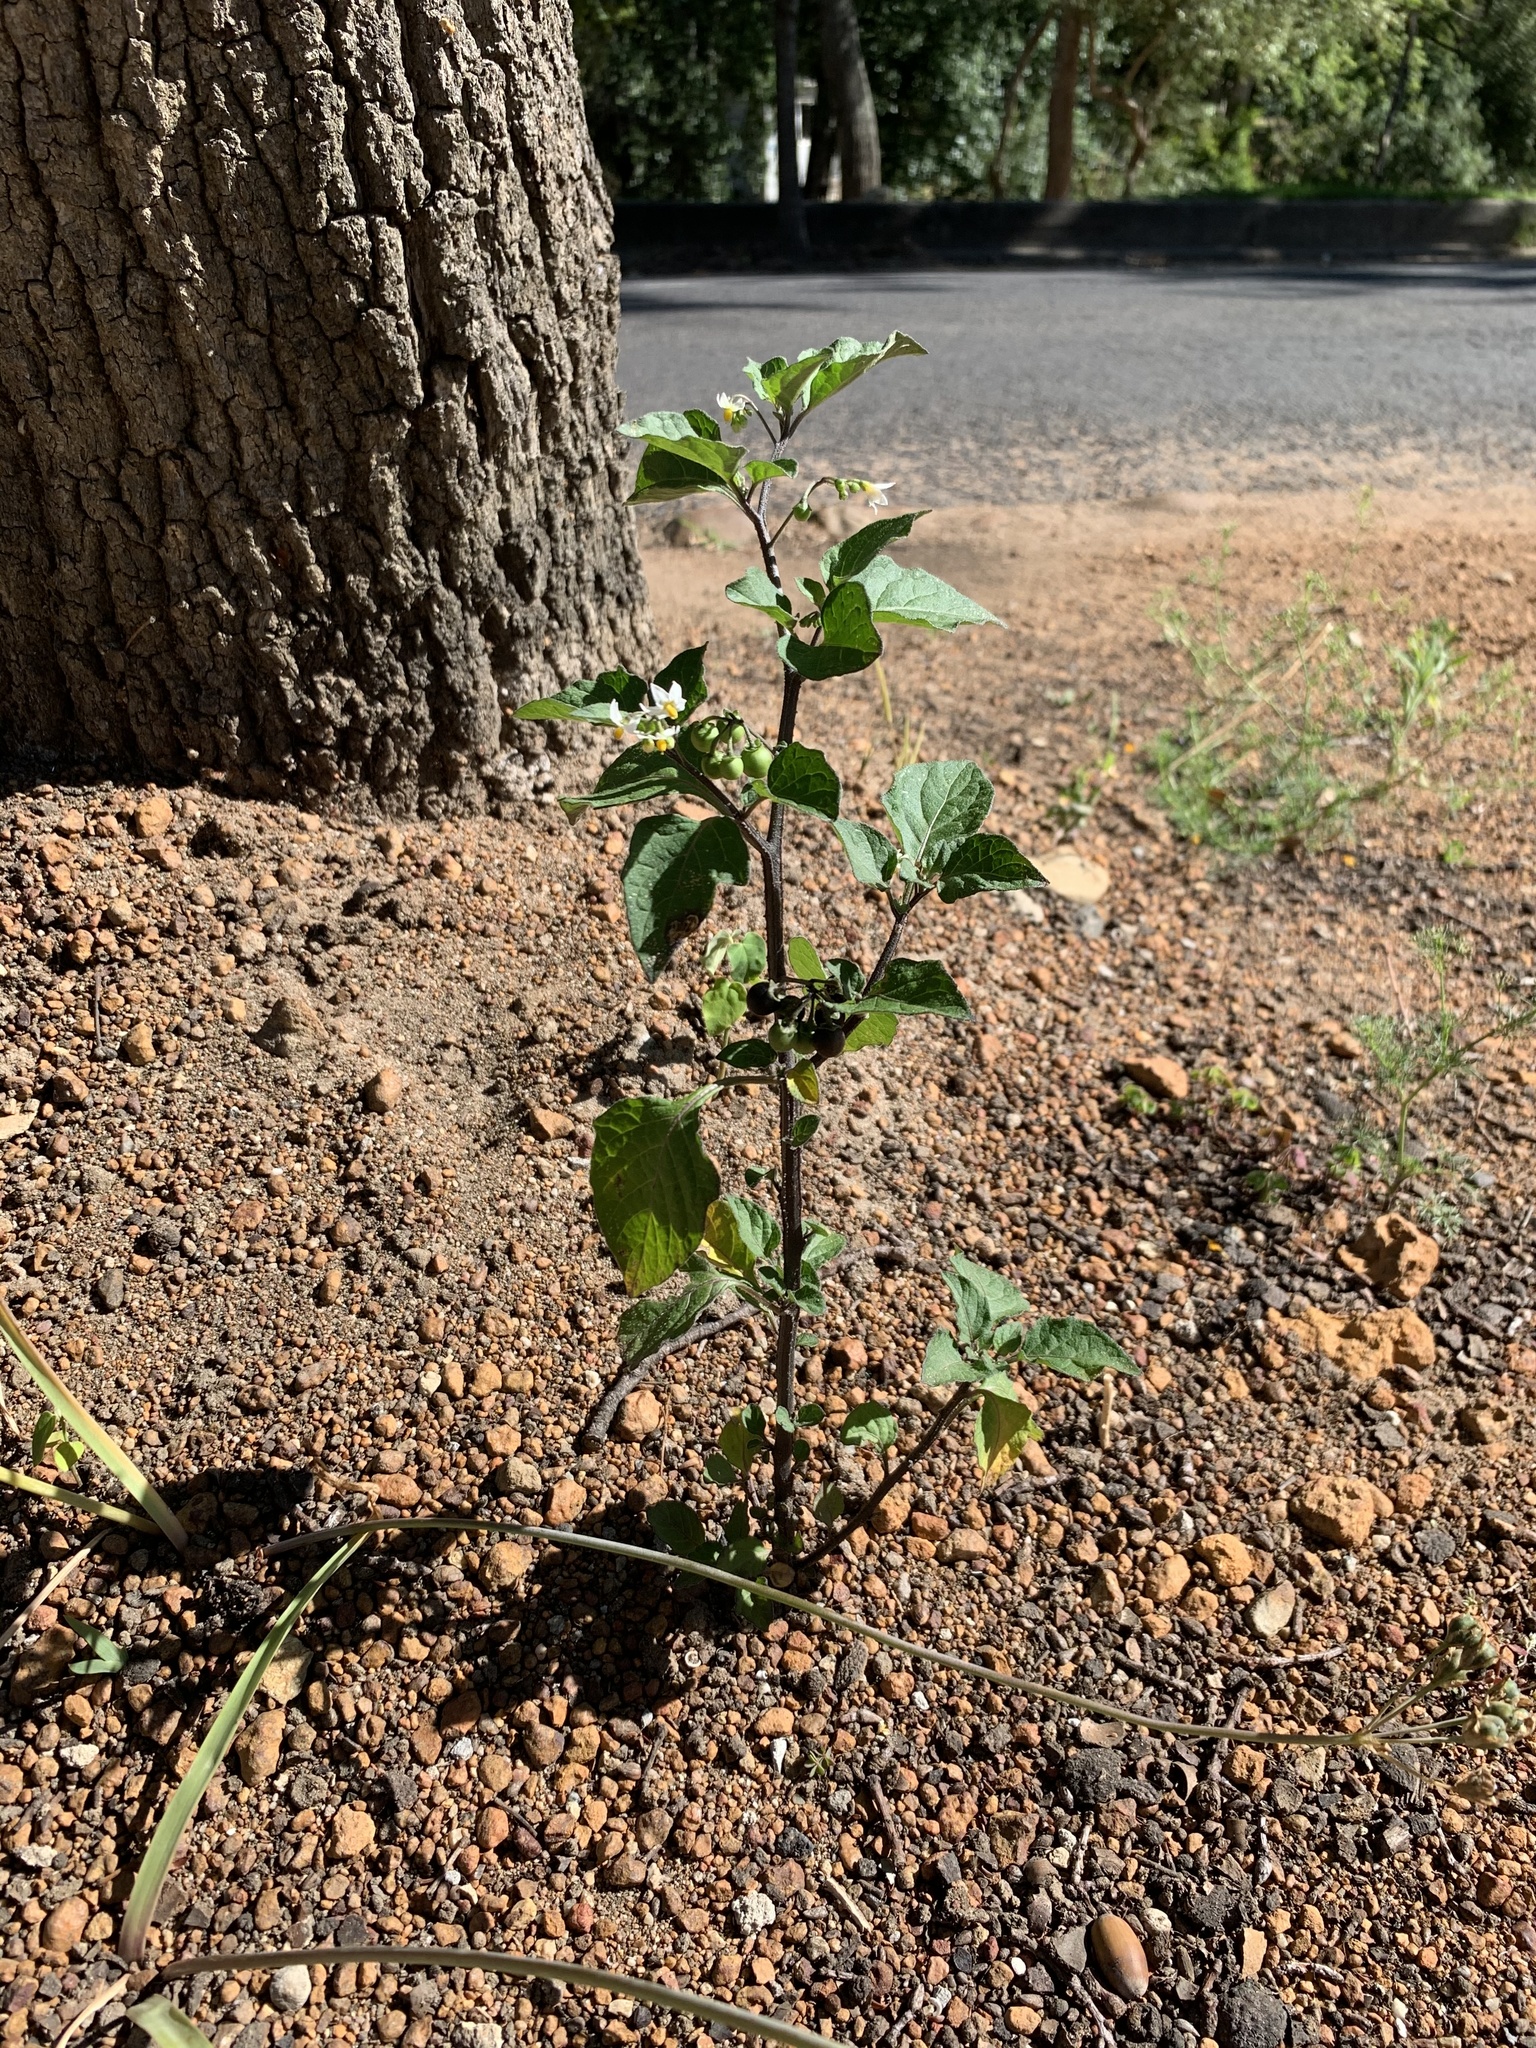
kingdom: Plantae
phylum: Tracheophyta
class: Magnoliopsida
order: Solanales
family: Solanaceae
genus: Solanum
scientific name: Solanum nigrum
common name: Black nightshade
